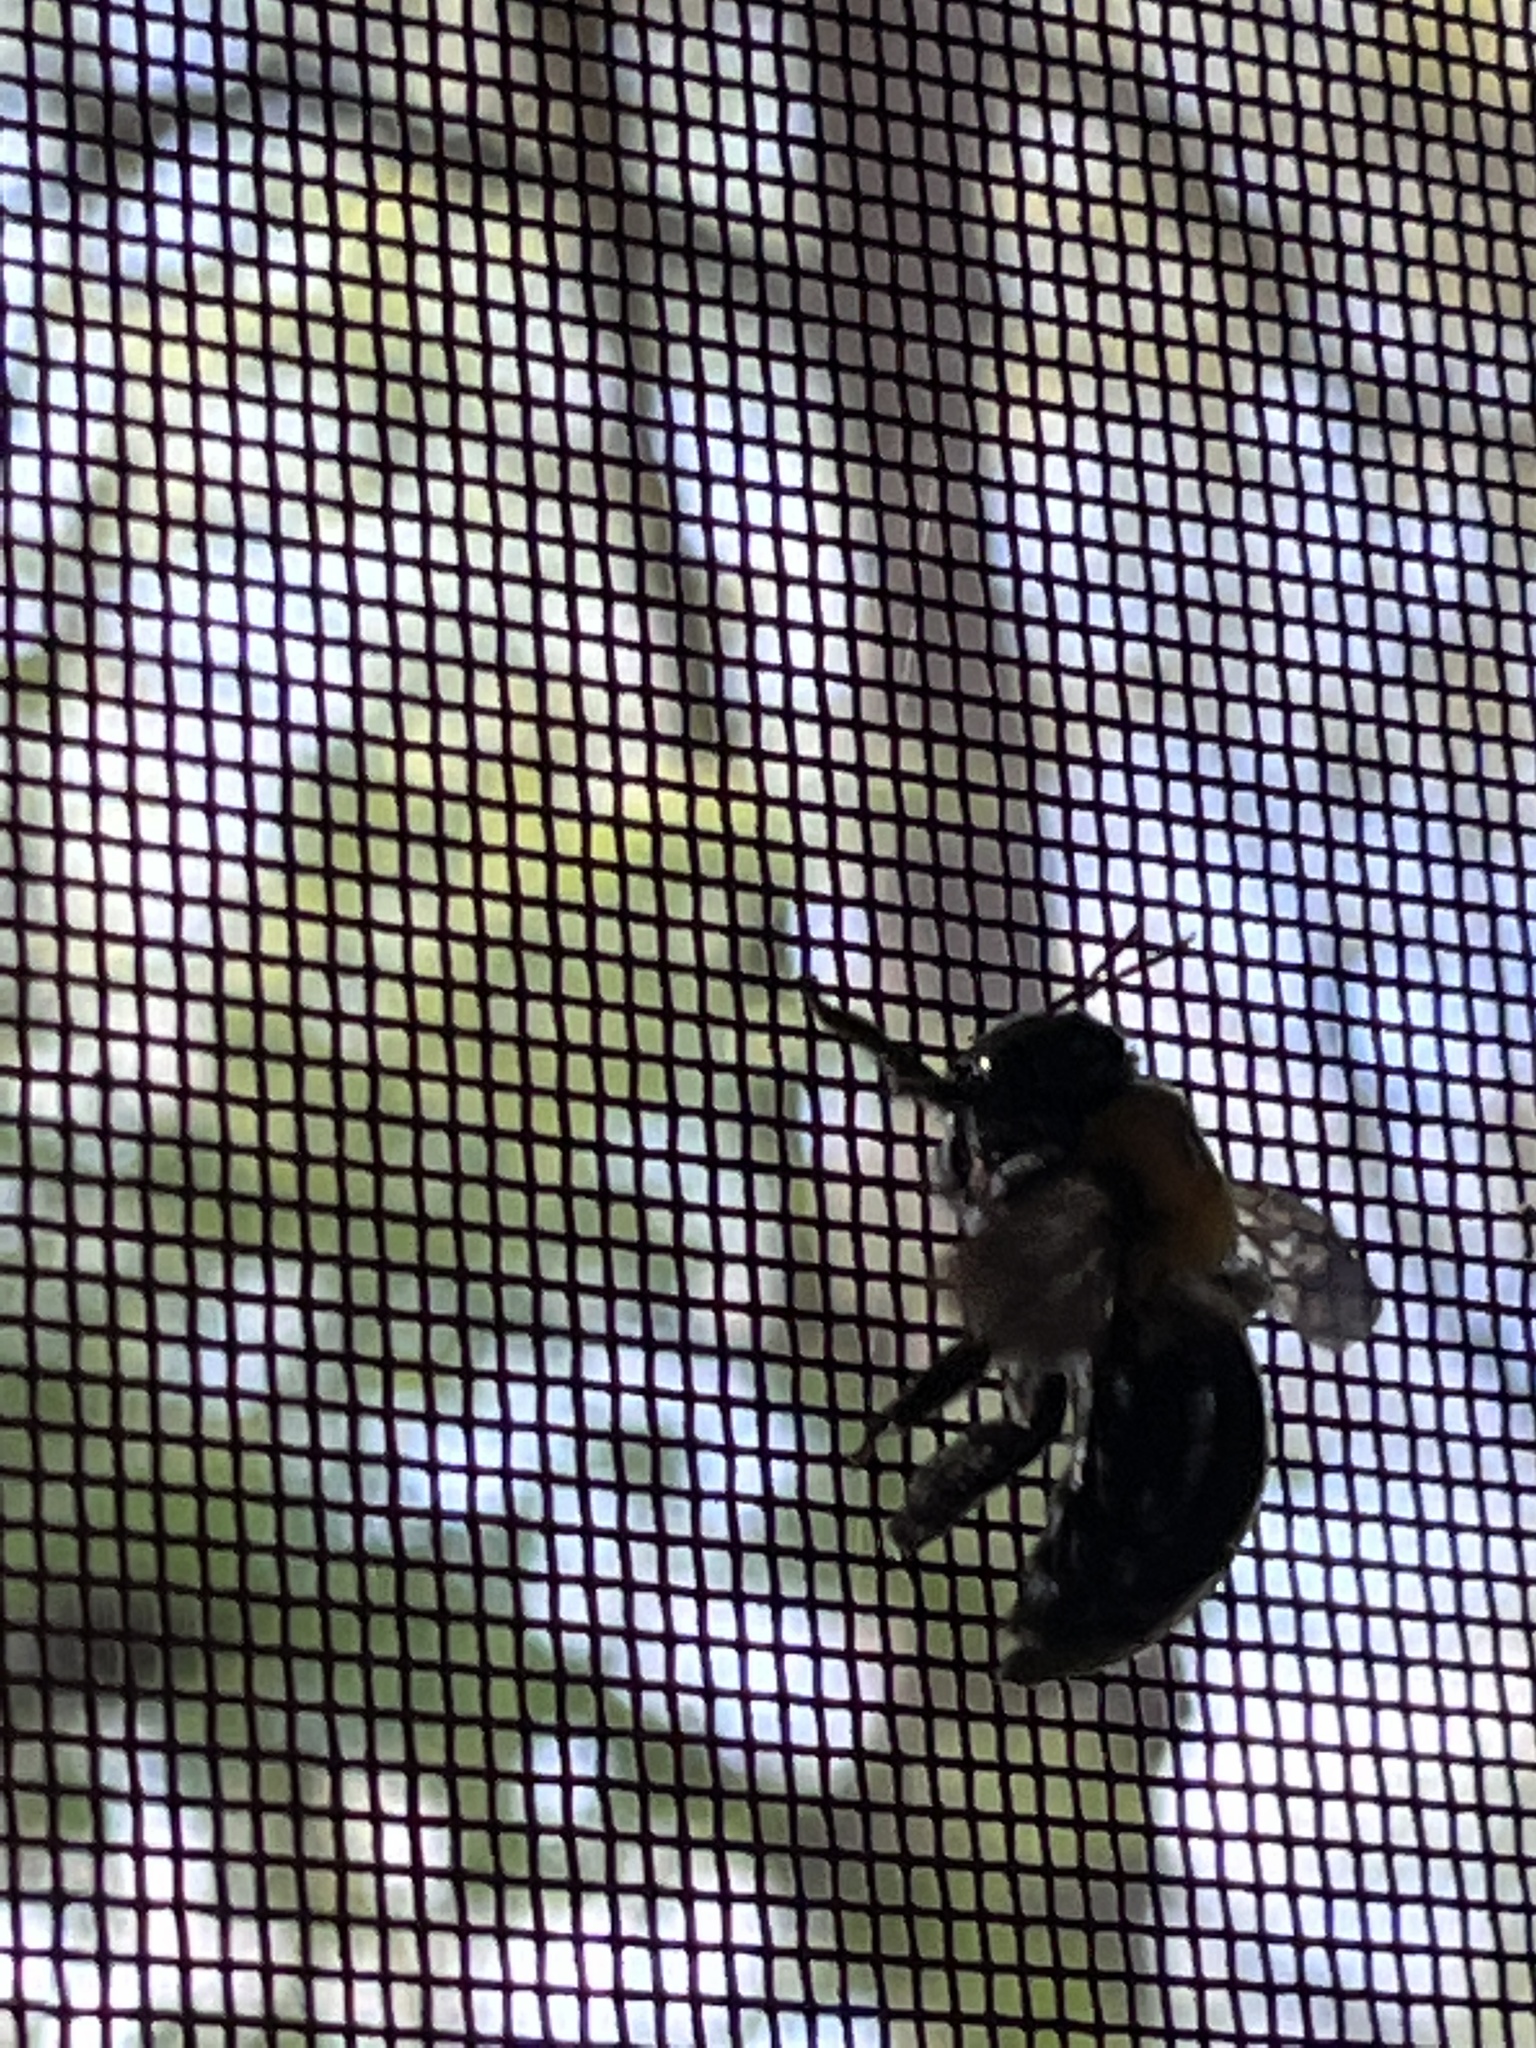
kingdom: Animalia
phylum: Arthropoda
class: Insecta
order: Hymenoptera
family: Apidae
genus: Xylocopa
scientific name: Xylocopa virginica
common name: Carpenter bee
